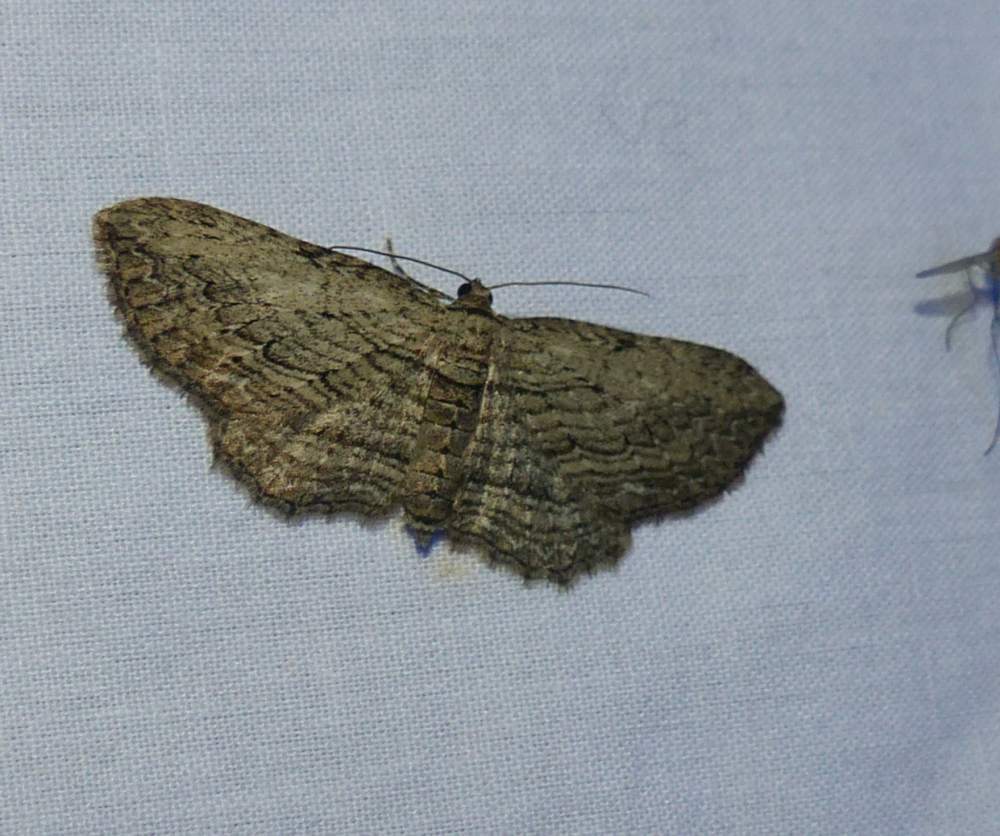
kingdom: Animalia
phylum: Arthropoda
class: Insecta
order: Lepidoptera
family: Geometridae
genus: Horisme
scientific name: Horisme intestinata
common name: Brown bark carpet
